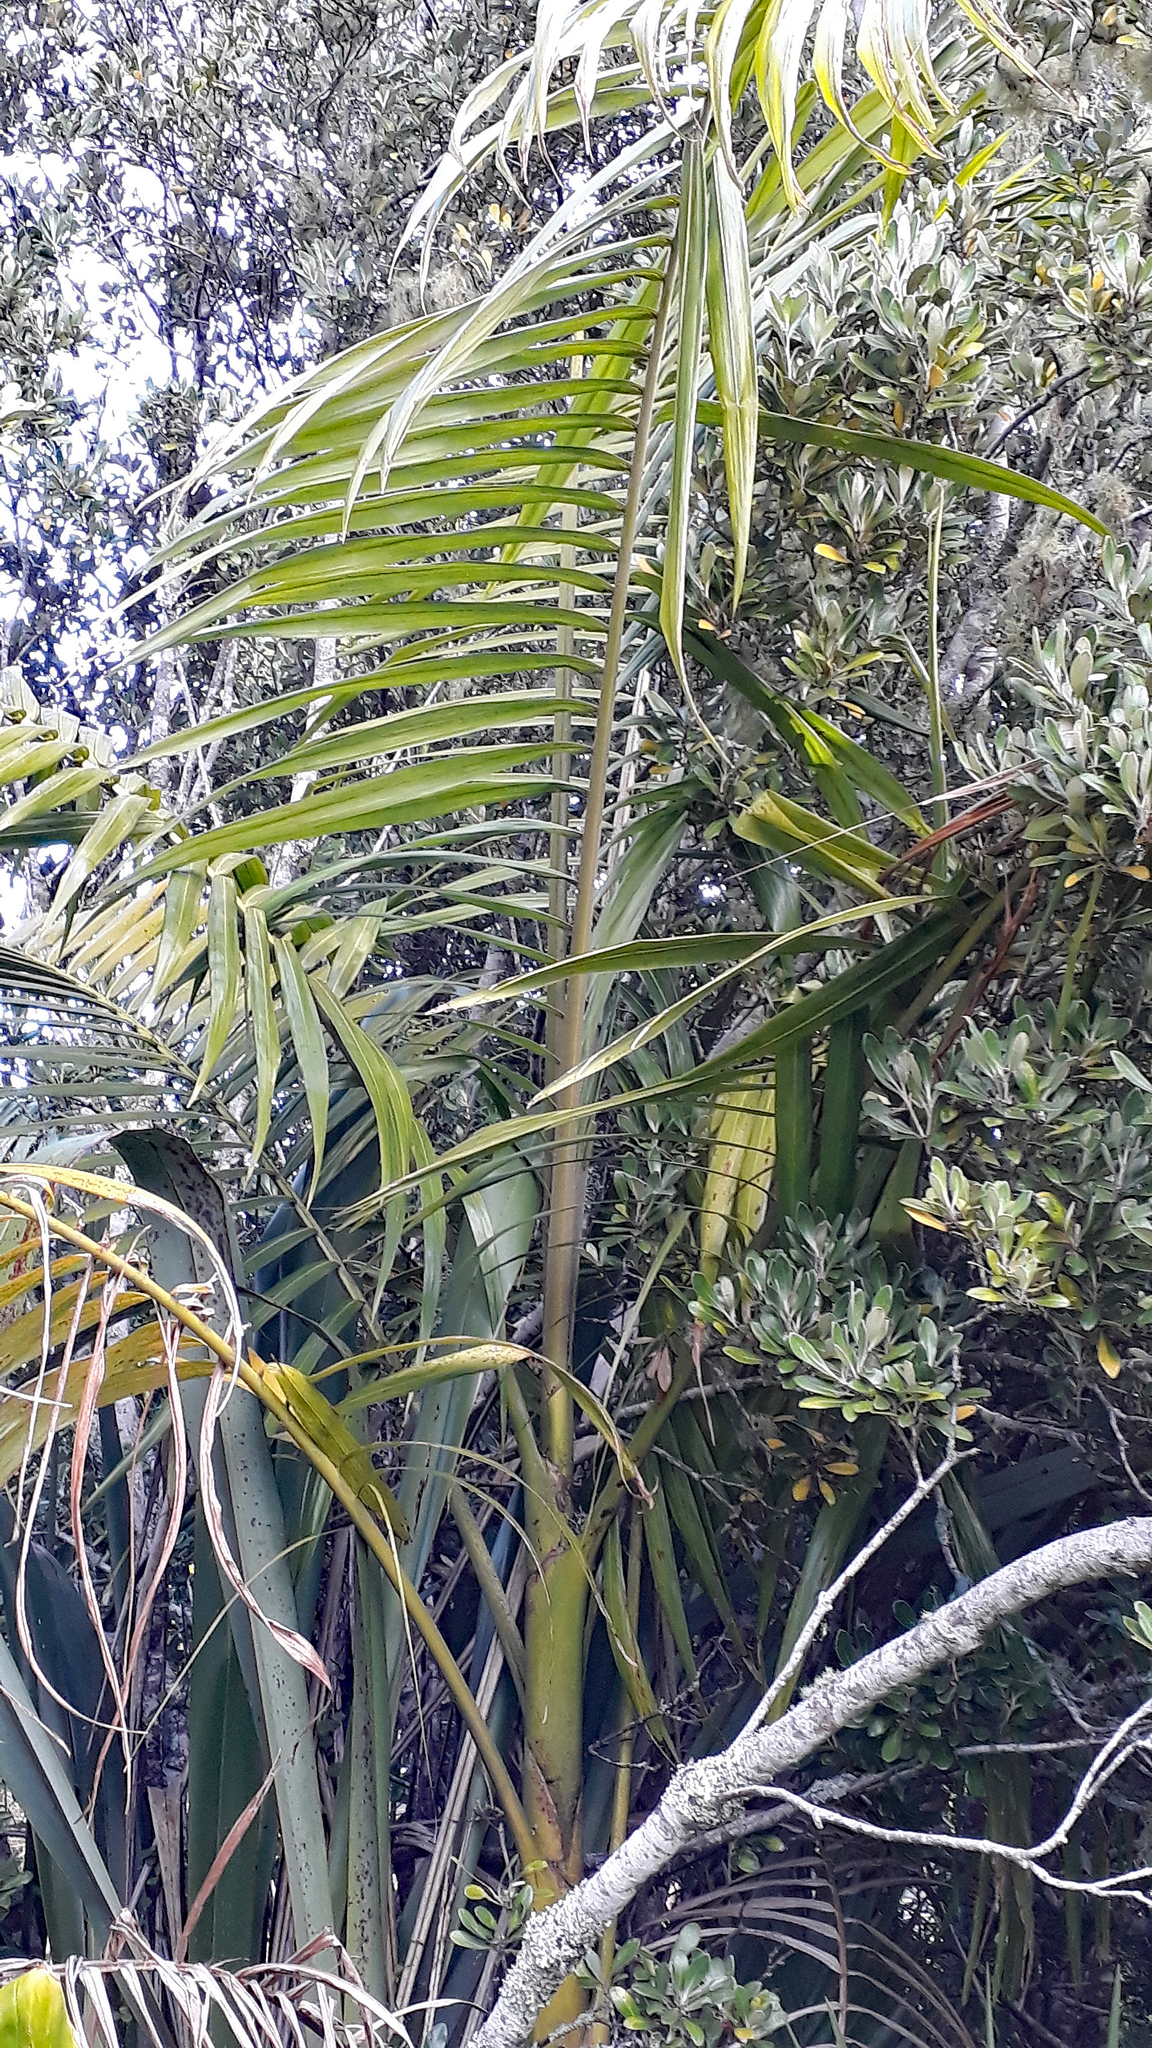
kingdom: Plantae
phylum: Tracheophyta
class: Liliopsida
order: Arecales
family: Arecaceae
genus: Archontophoenix
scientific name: Archontophoenix cunninghamiana
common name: Piccabeen bangalow palm
